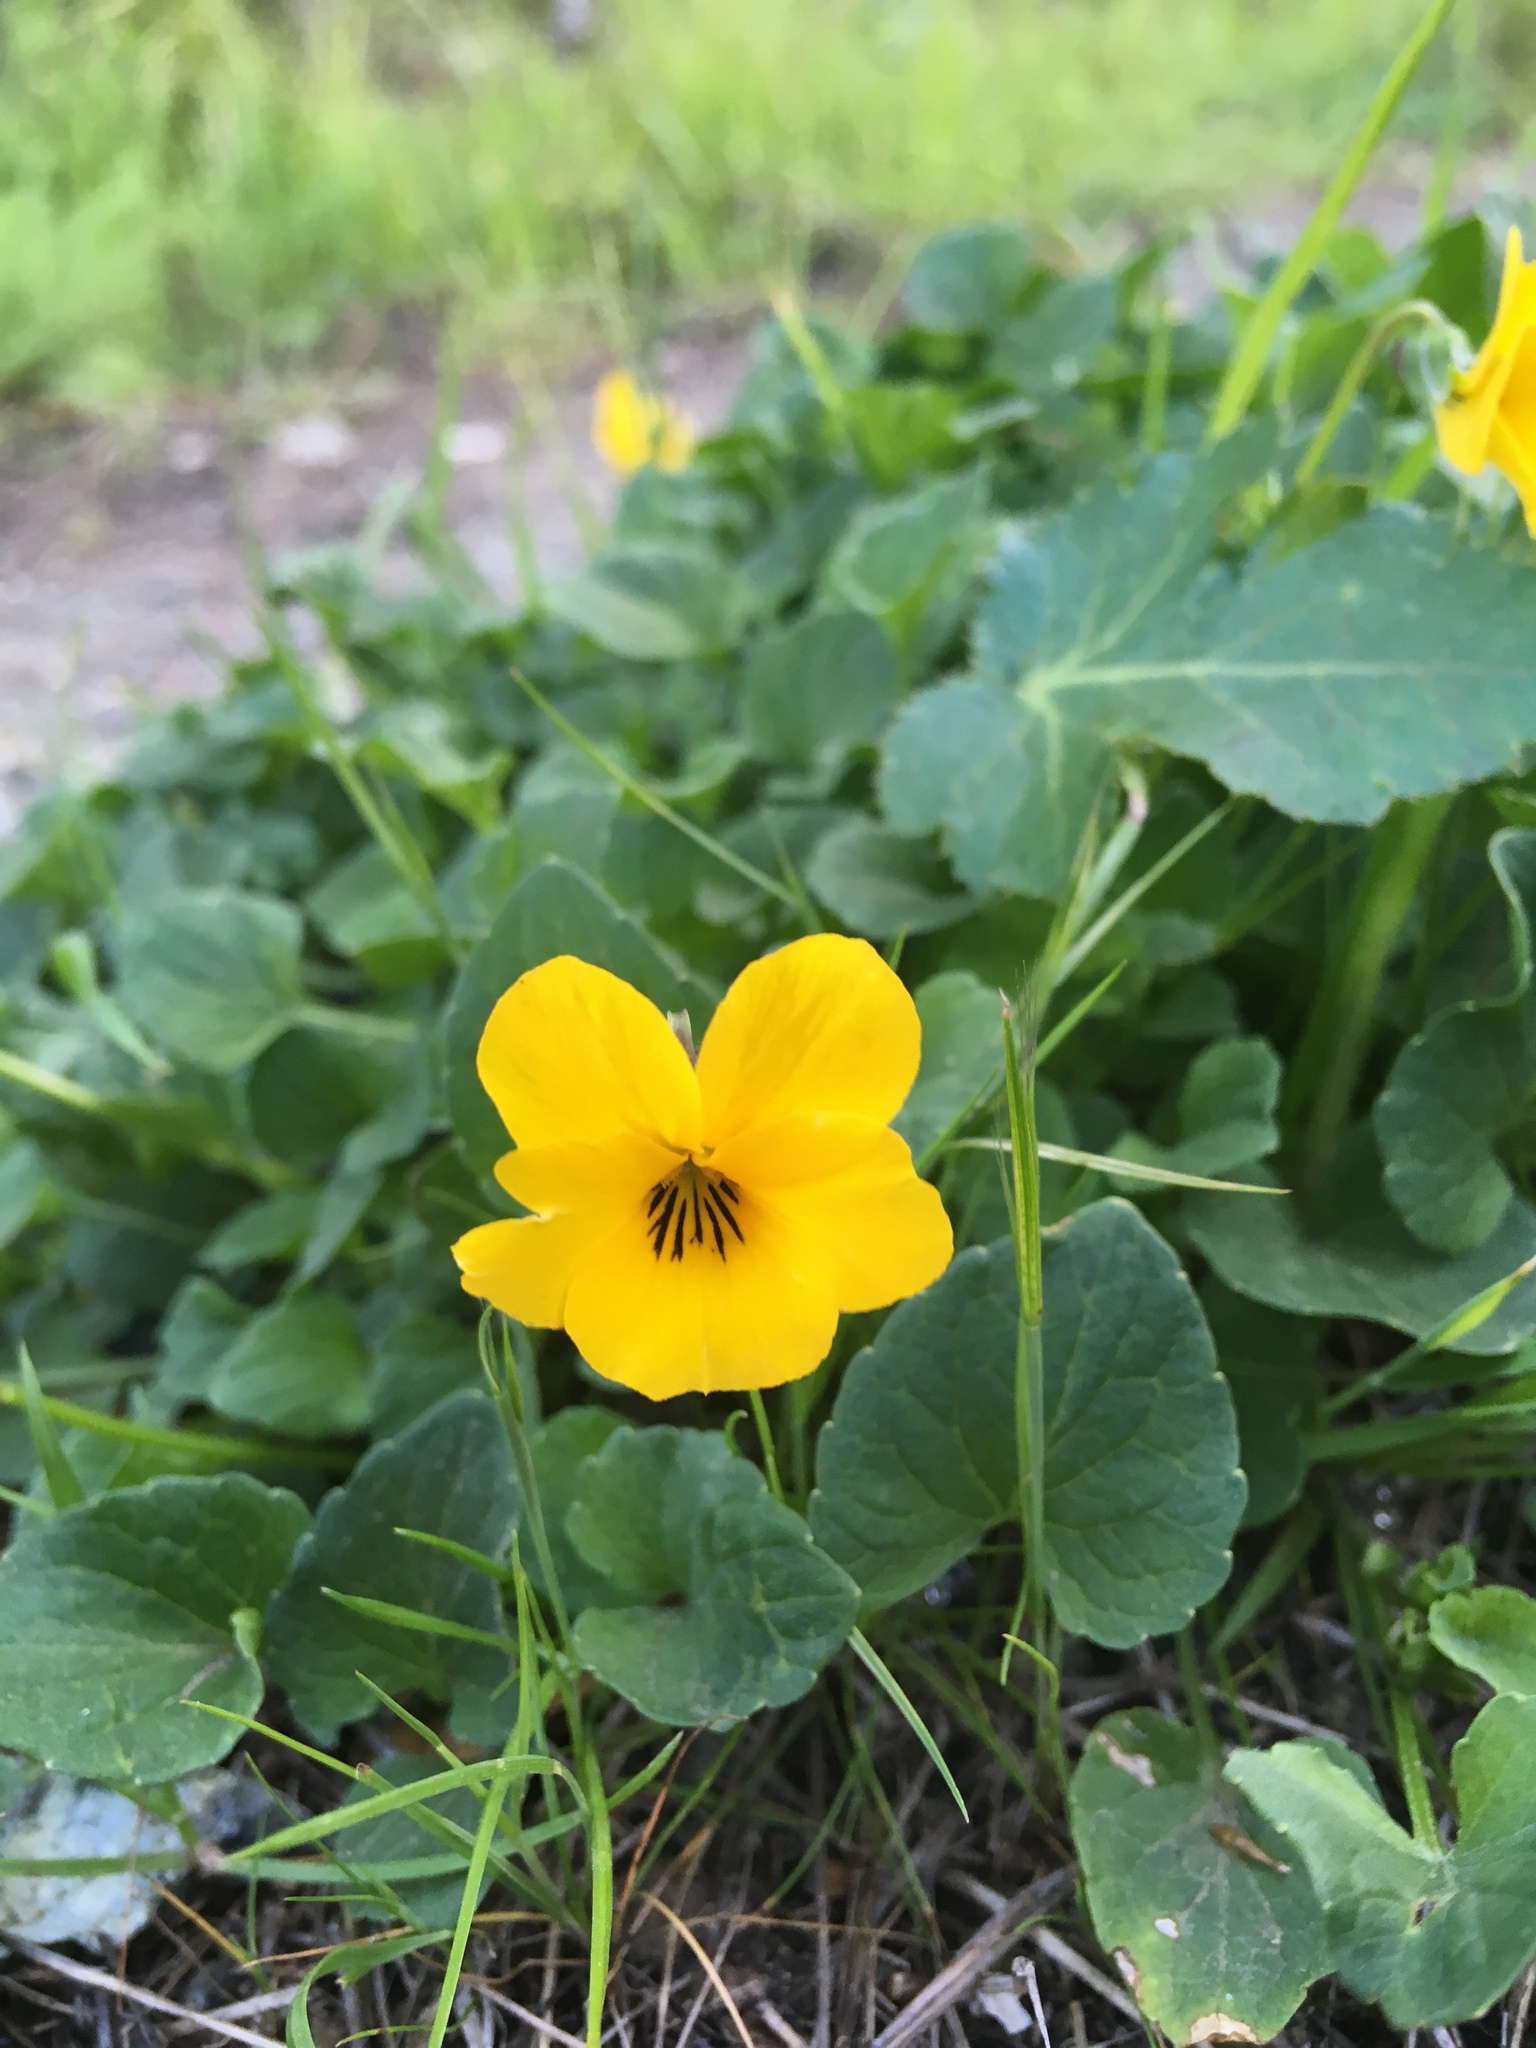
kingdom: Plantae
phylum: Tracheophyta
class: Magnoliopsida
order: Malpighiales
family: Violaceae
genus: Viola
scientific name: Viola pedunculata
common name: California golden violet
